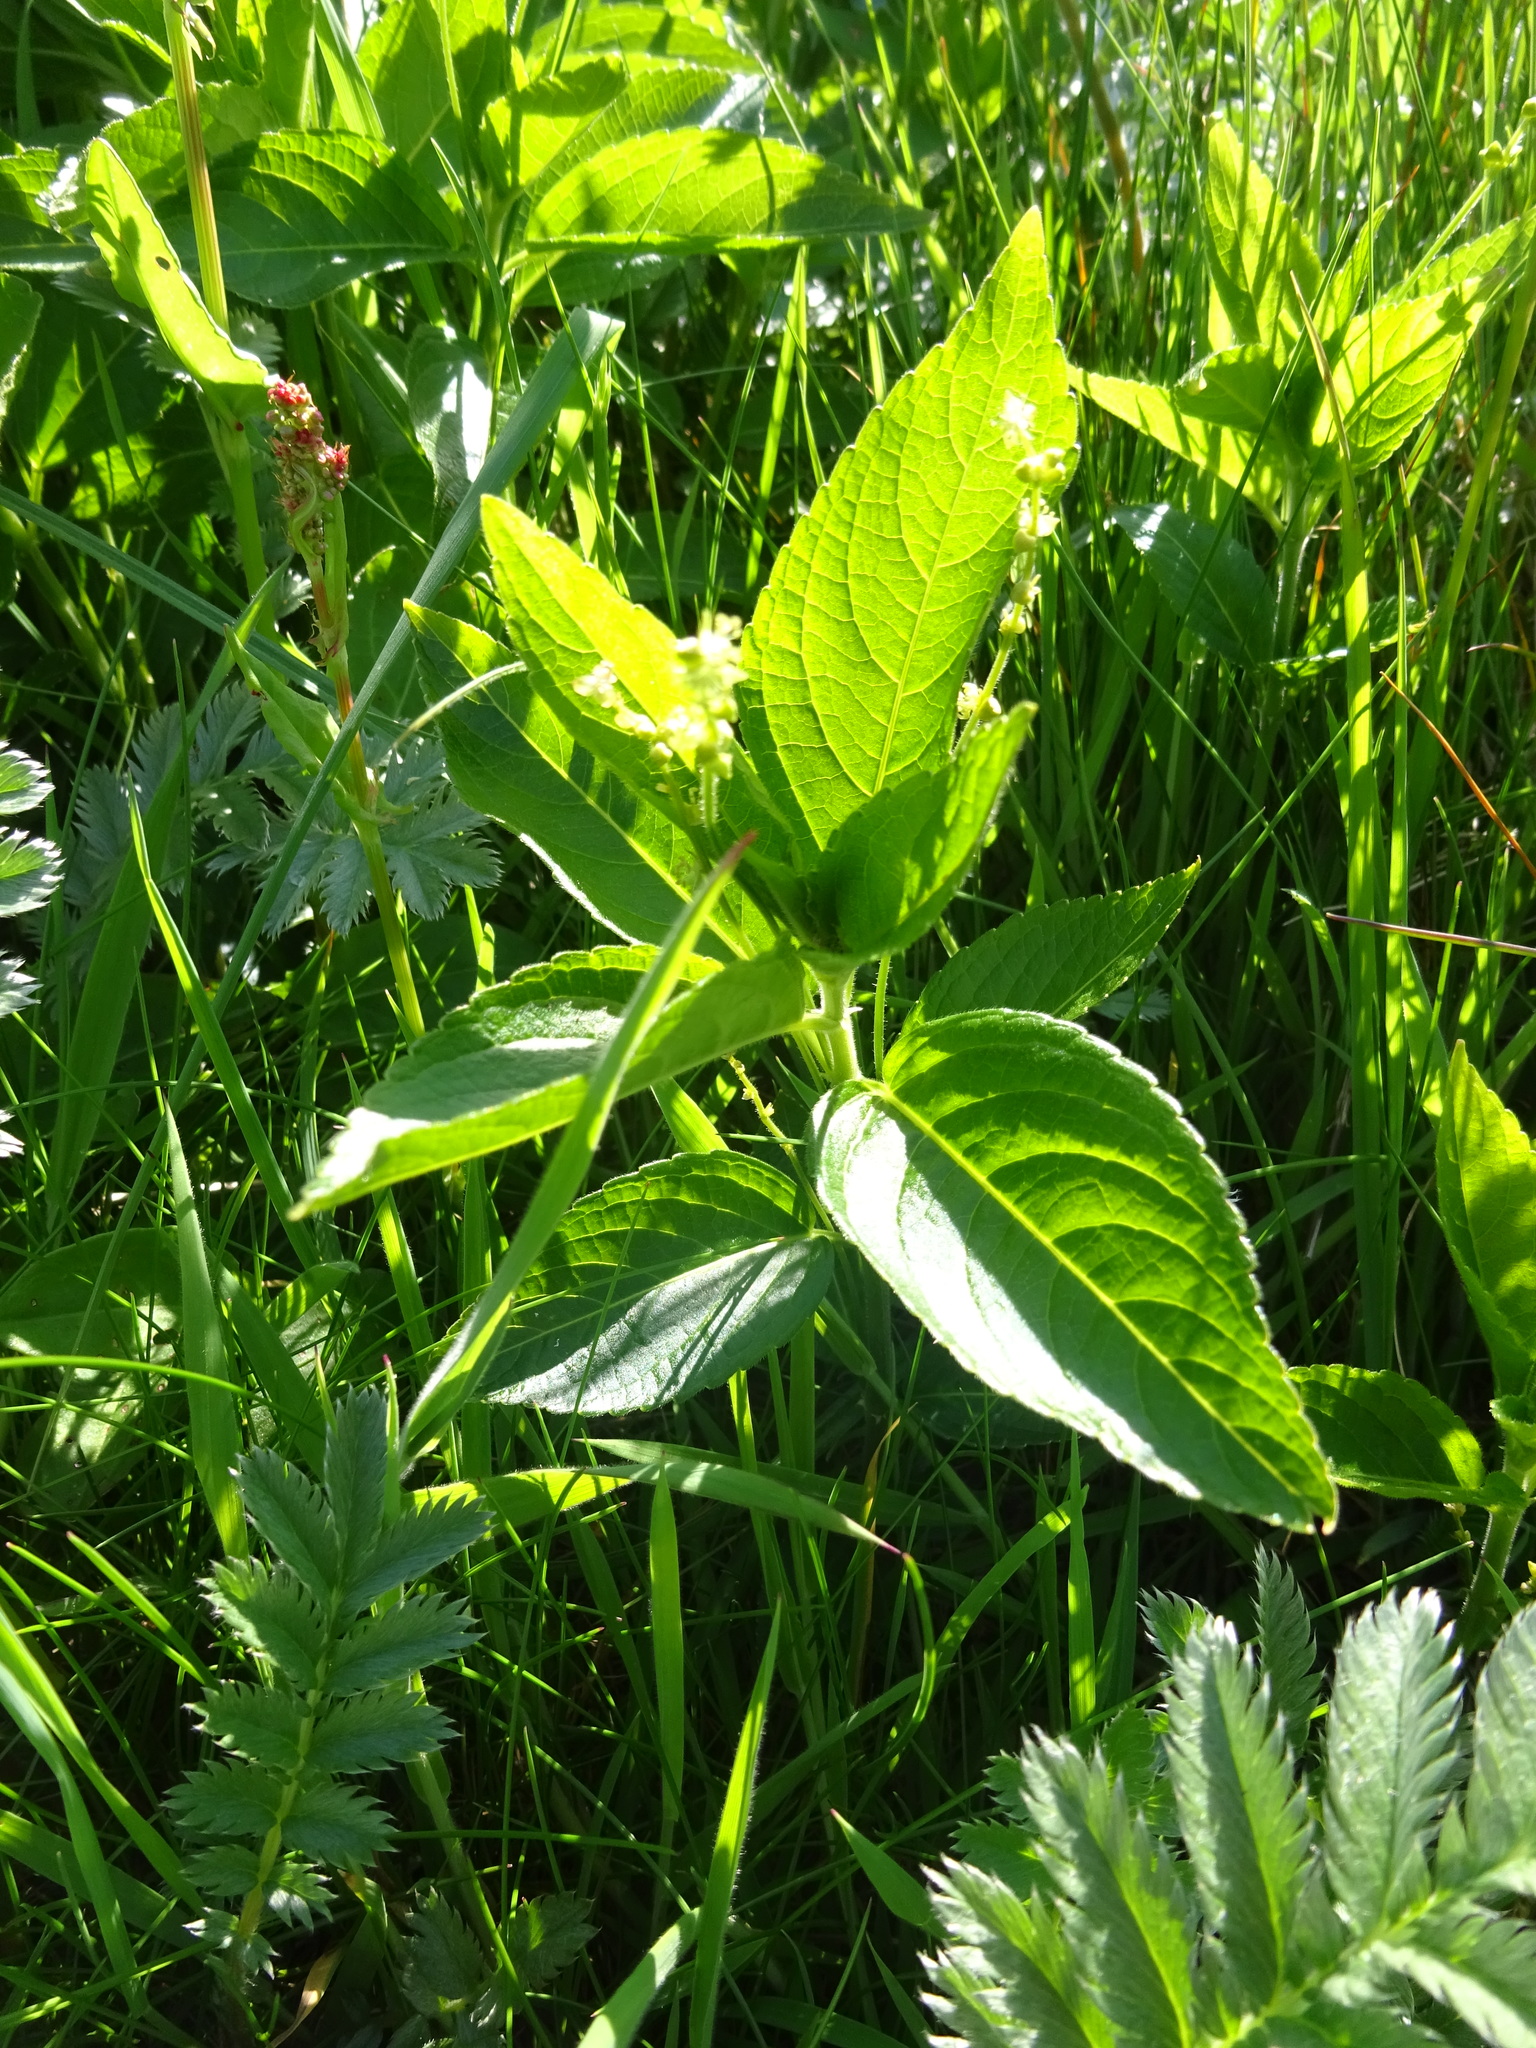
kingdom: Plantae
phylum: Tracheophyta
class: Magnoliopsida
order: Malpighiales
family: Euphorbiaceae
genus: Mercurialis
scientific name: Mercurialis perennis
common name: Dog mercury
